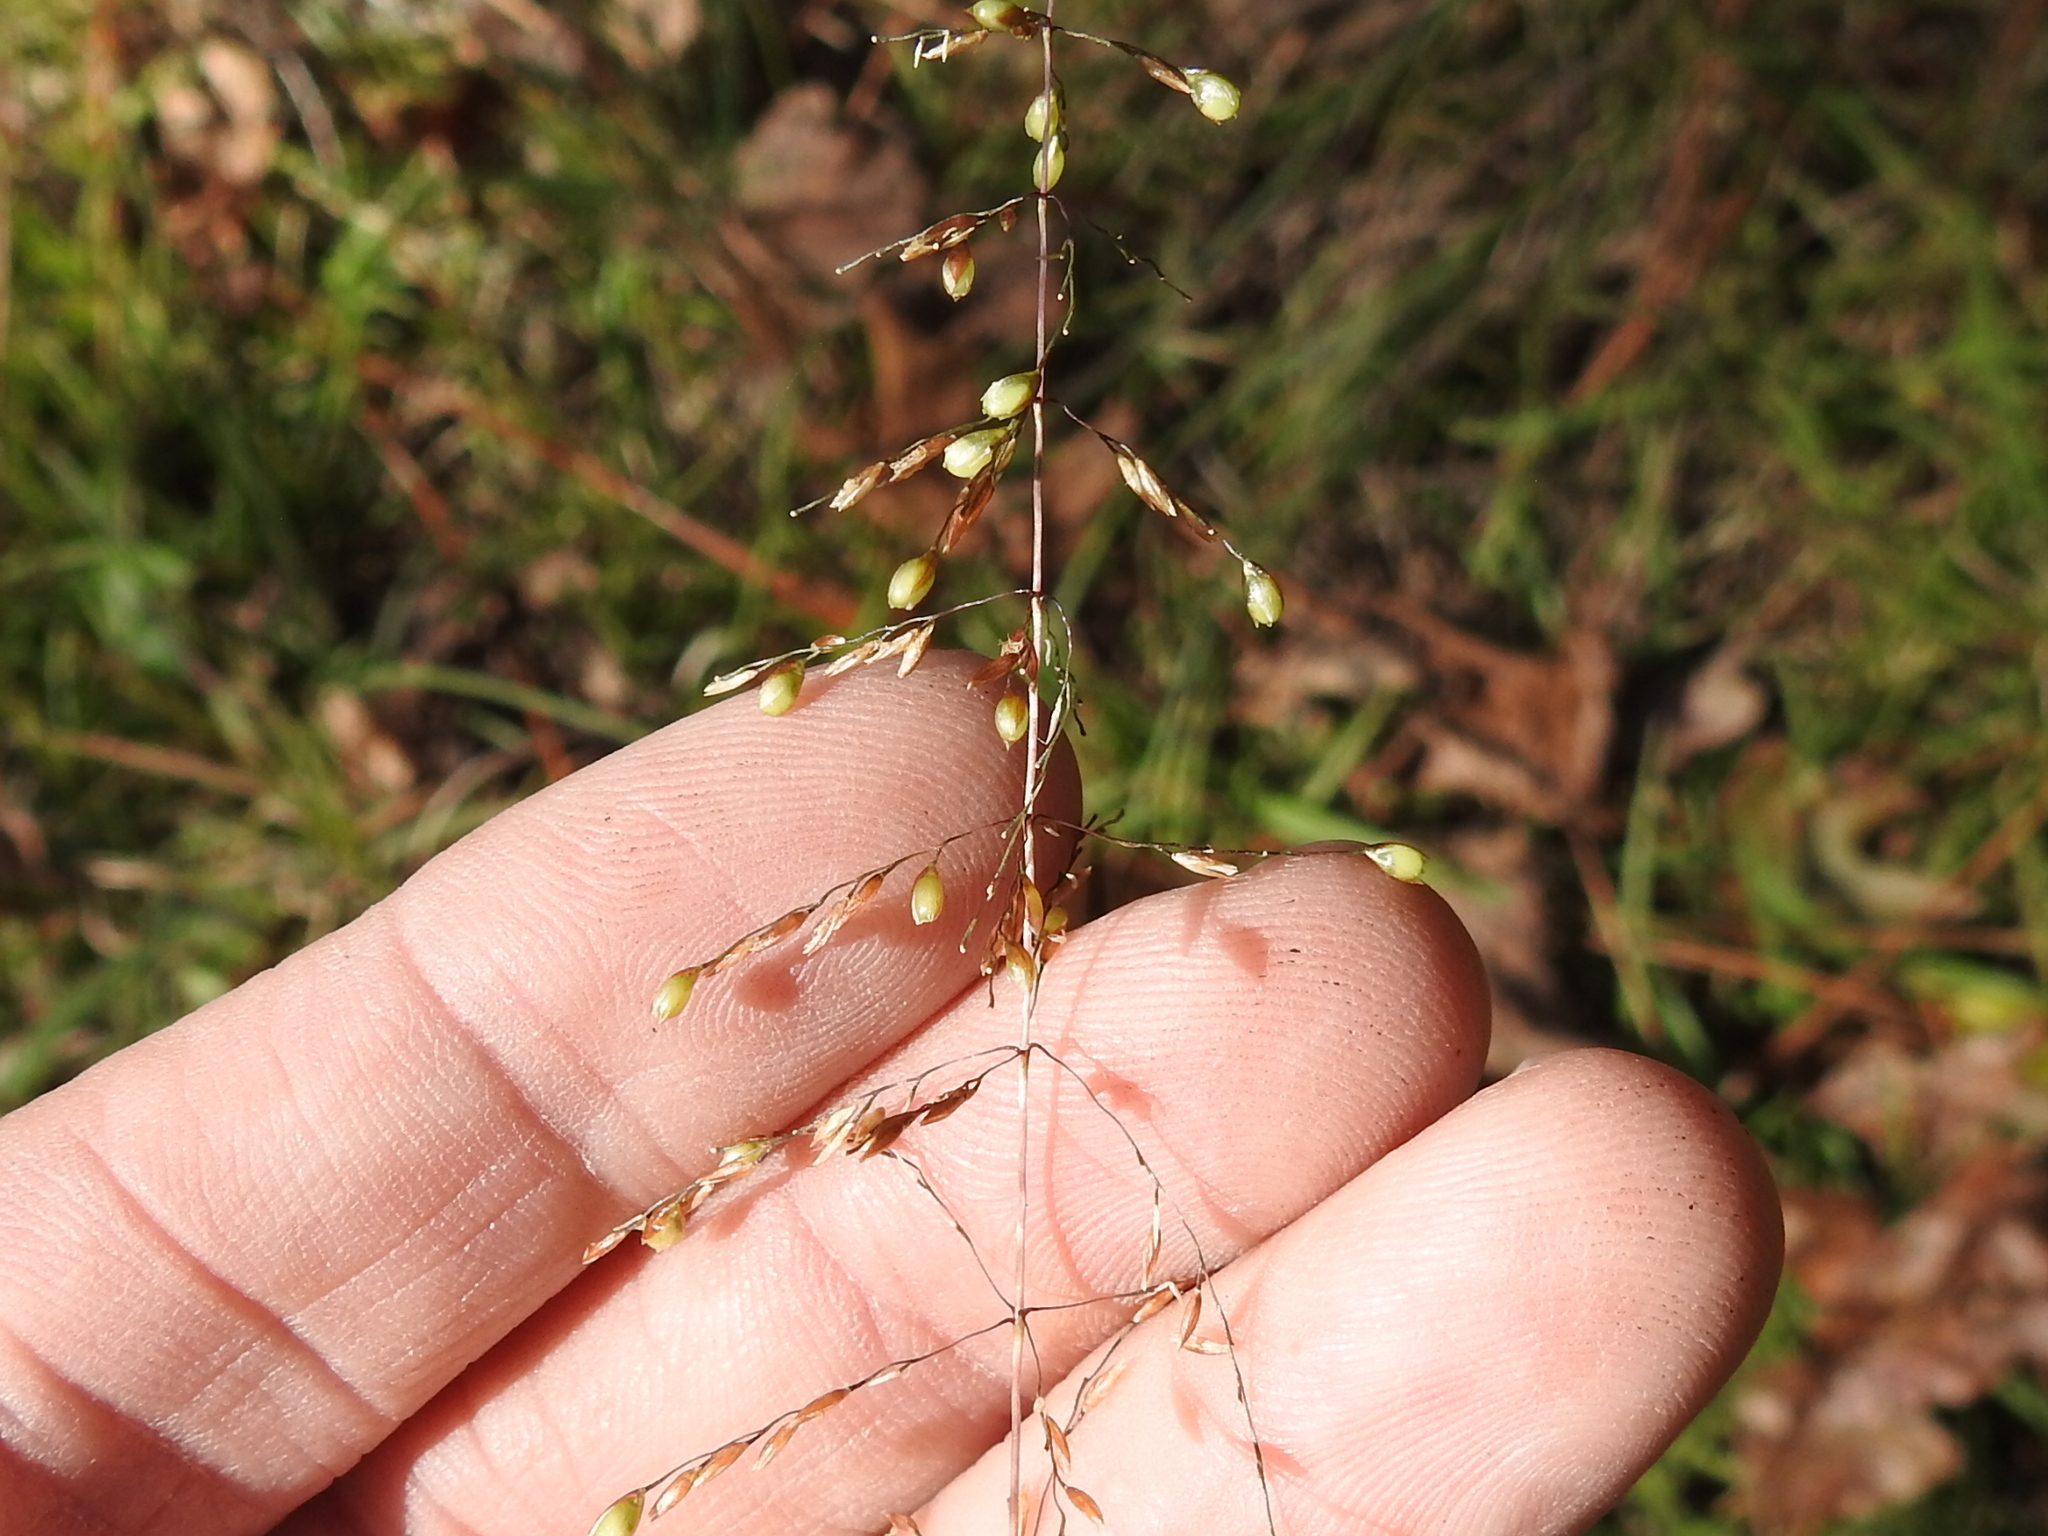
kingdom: Plantae
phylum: Tracheophyta
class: Liliopsida
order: Poales
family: Poaceae
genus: Sporobolus
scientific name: Sporobolus junceus
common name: Lizard grass
